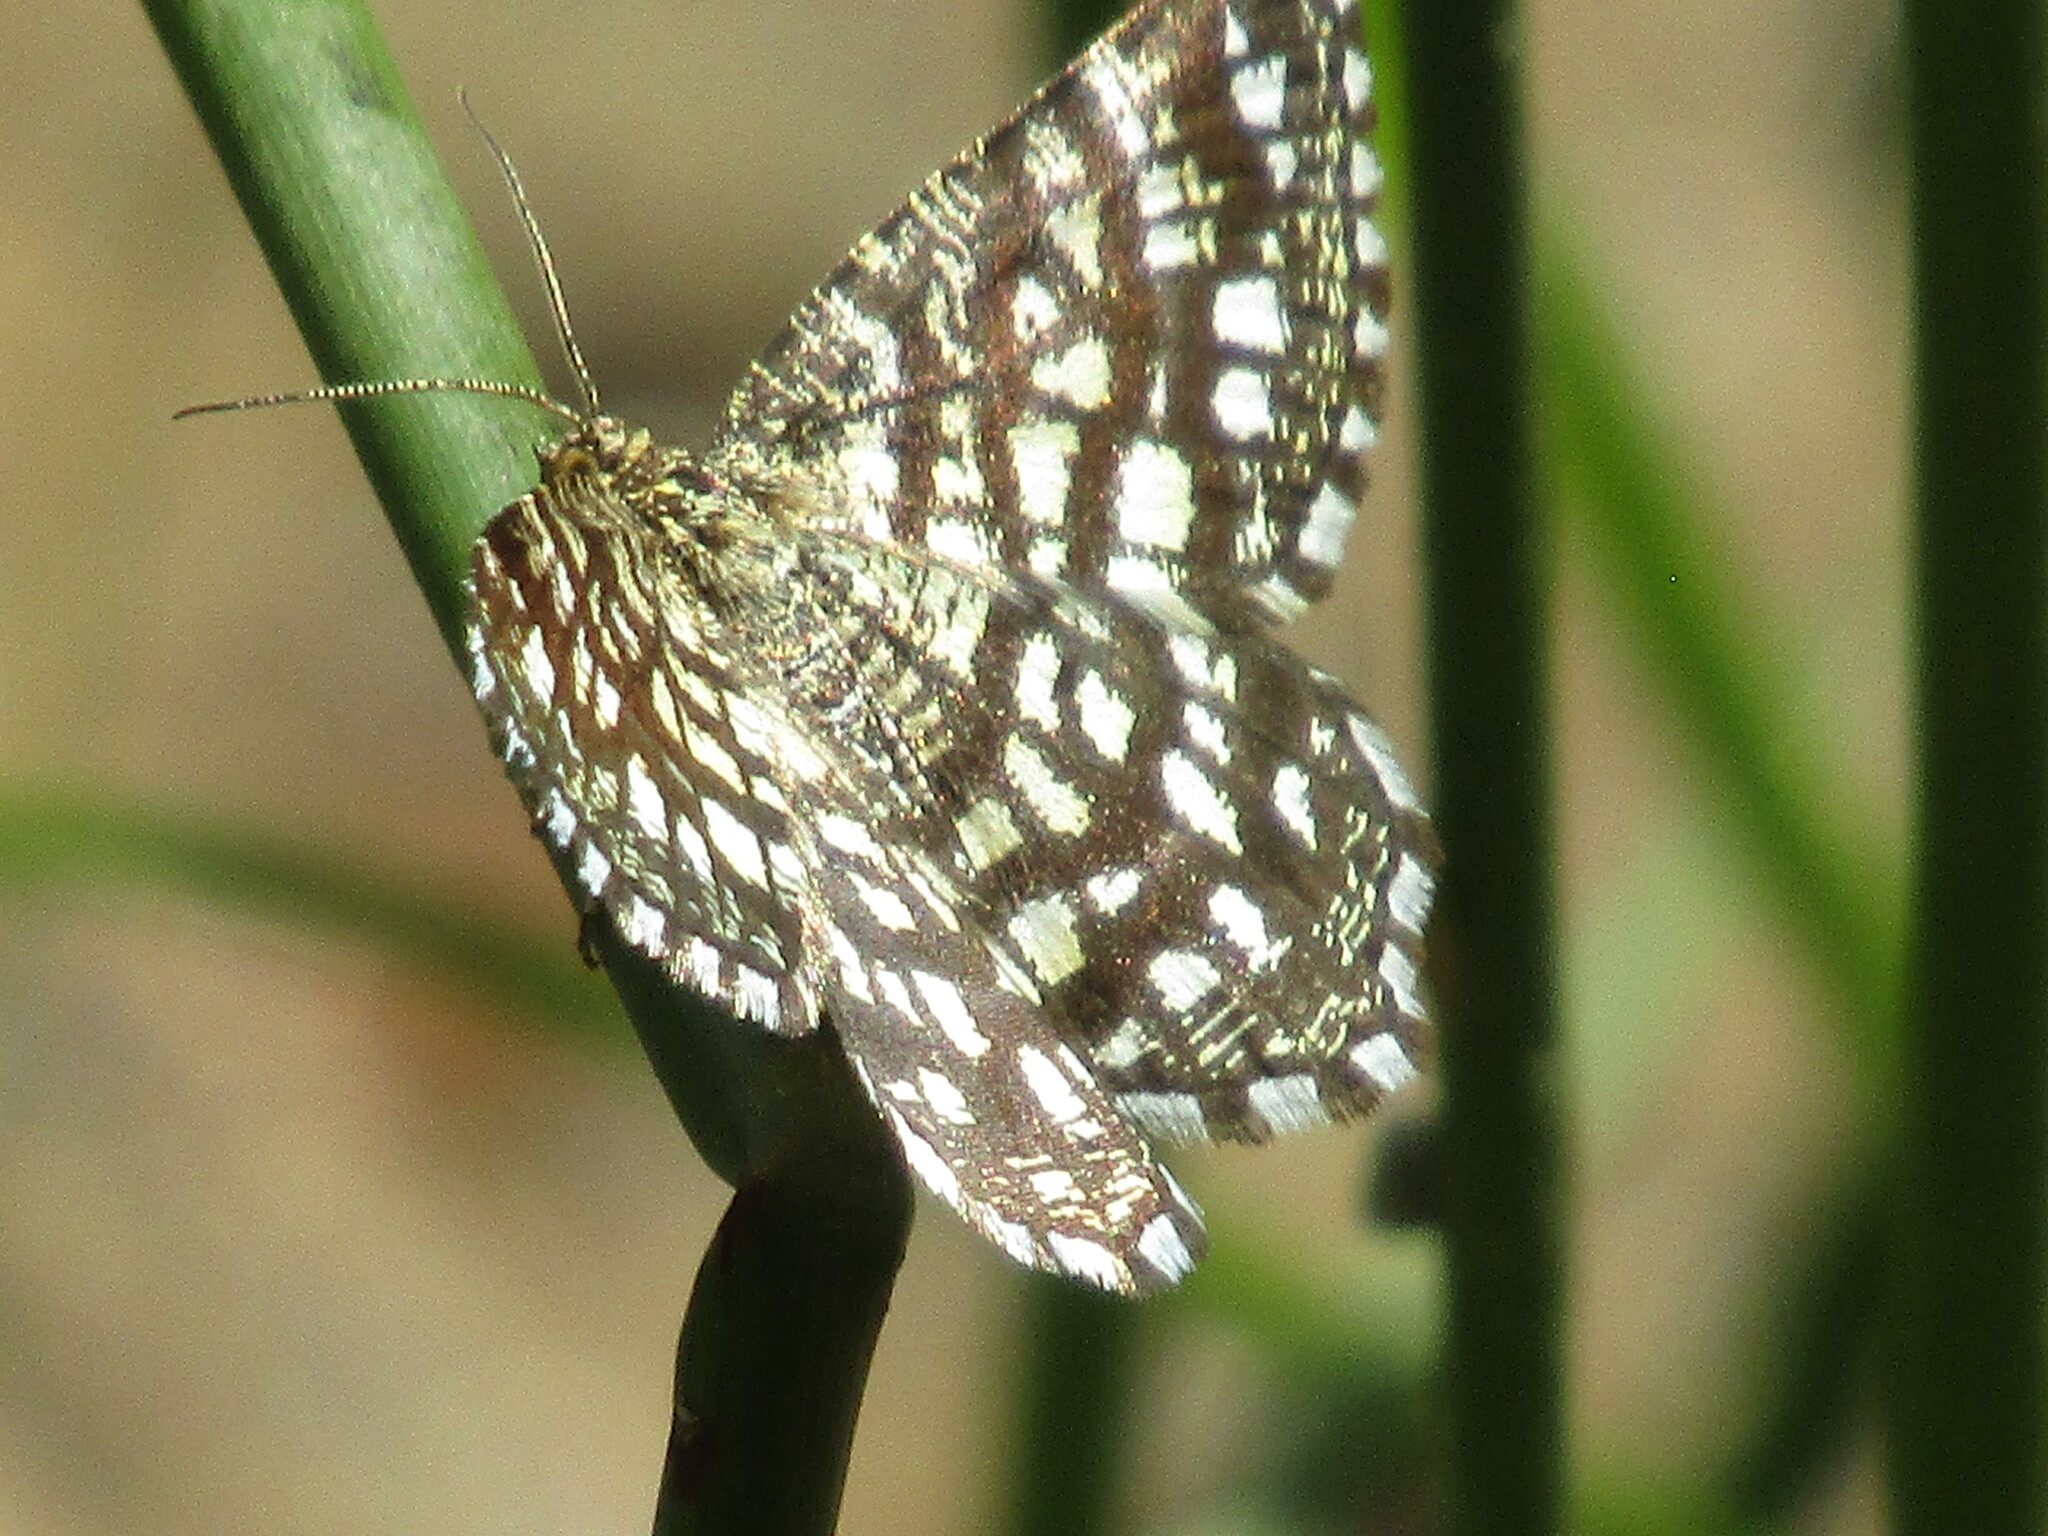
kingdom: Animalia
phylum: Arthropoda
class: Insecta
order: Lepidoptera
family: Geometridae
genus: Chiasmia
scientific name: Chiasmia clathrata
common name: Latticed heath
